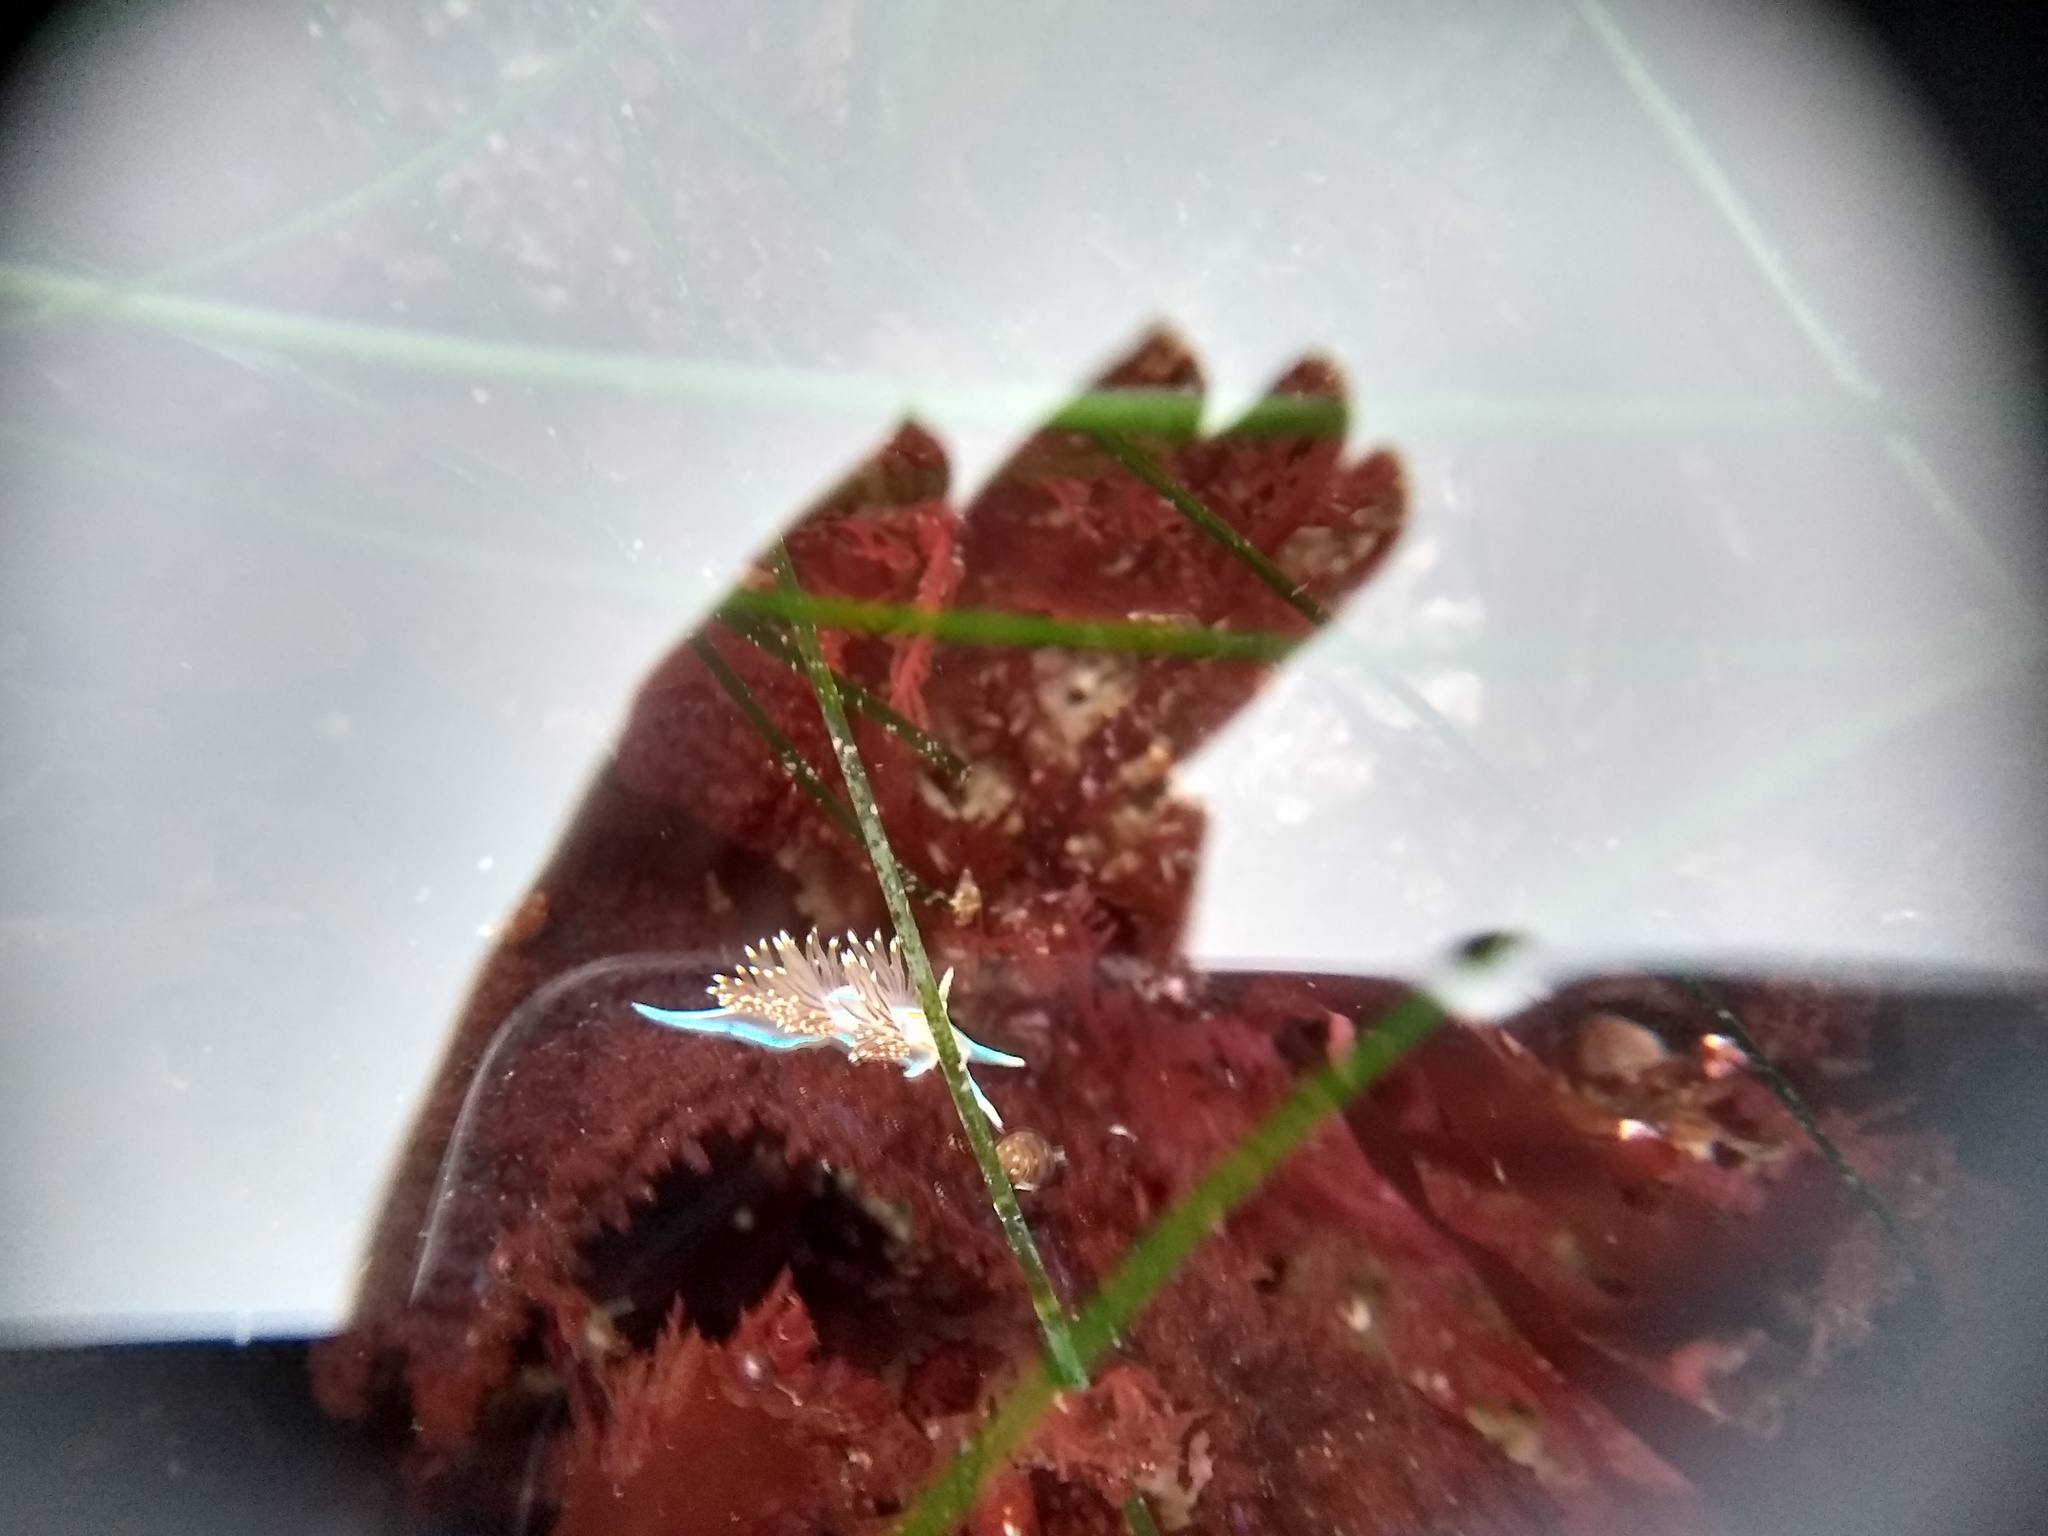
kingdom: Animalia
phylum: Mollusca
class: Gastropoda
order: Nudibranchia
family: Myrrhinidae
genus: Hermissenda
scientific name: Hermissenda opalescens
